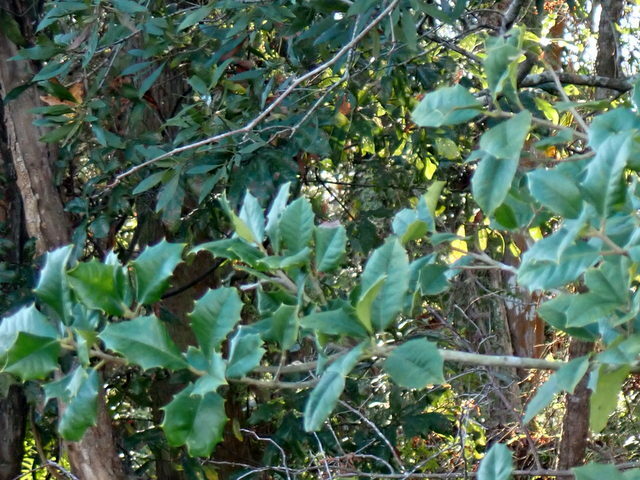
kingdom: Plantae
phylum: Tracheophyta
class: Magnoliopsida
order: Aquifoliales
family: Aquifoliaceae
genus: Ilex
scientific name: Ilex opaca
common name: American holly
